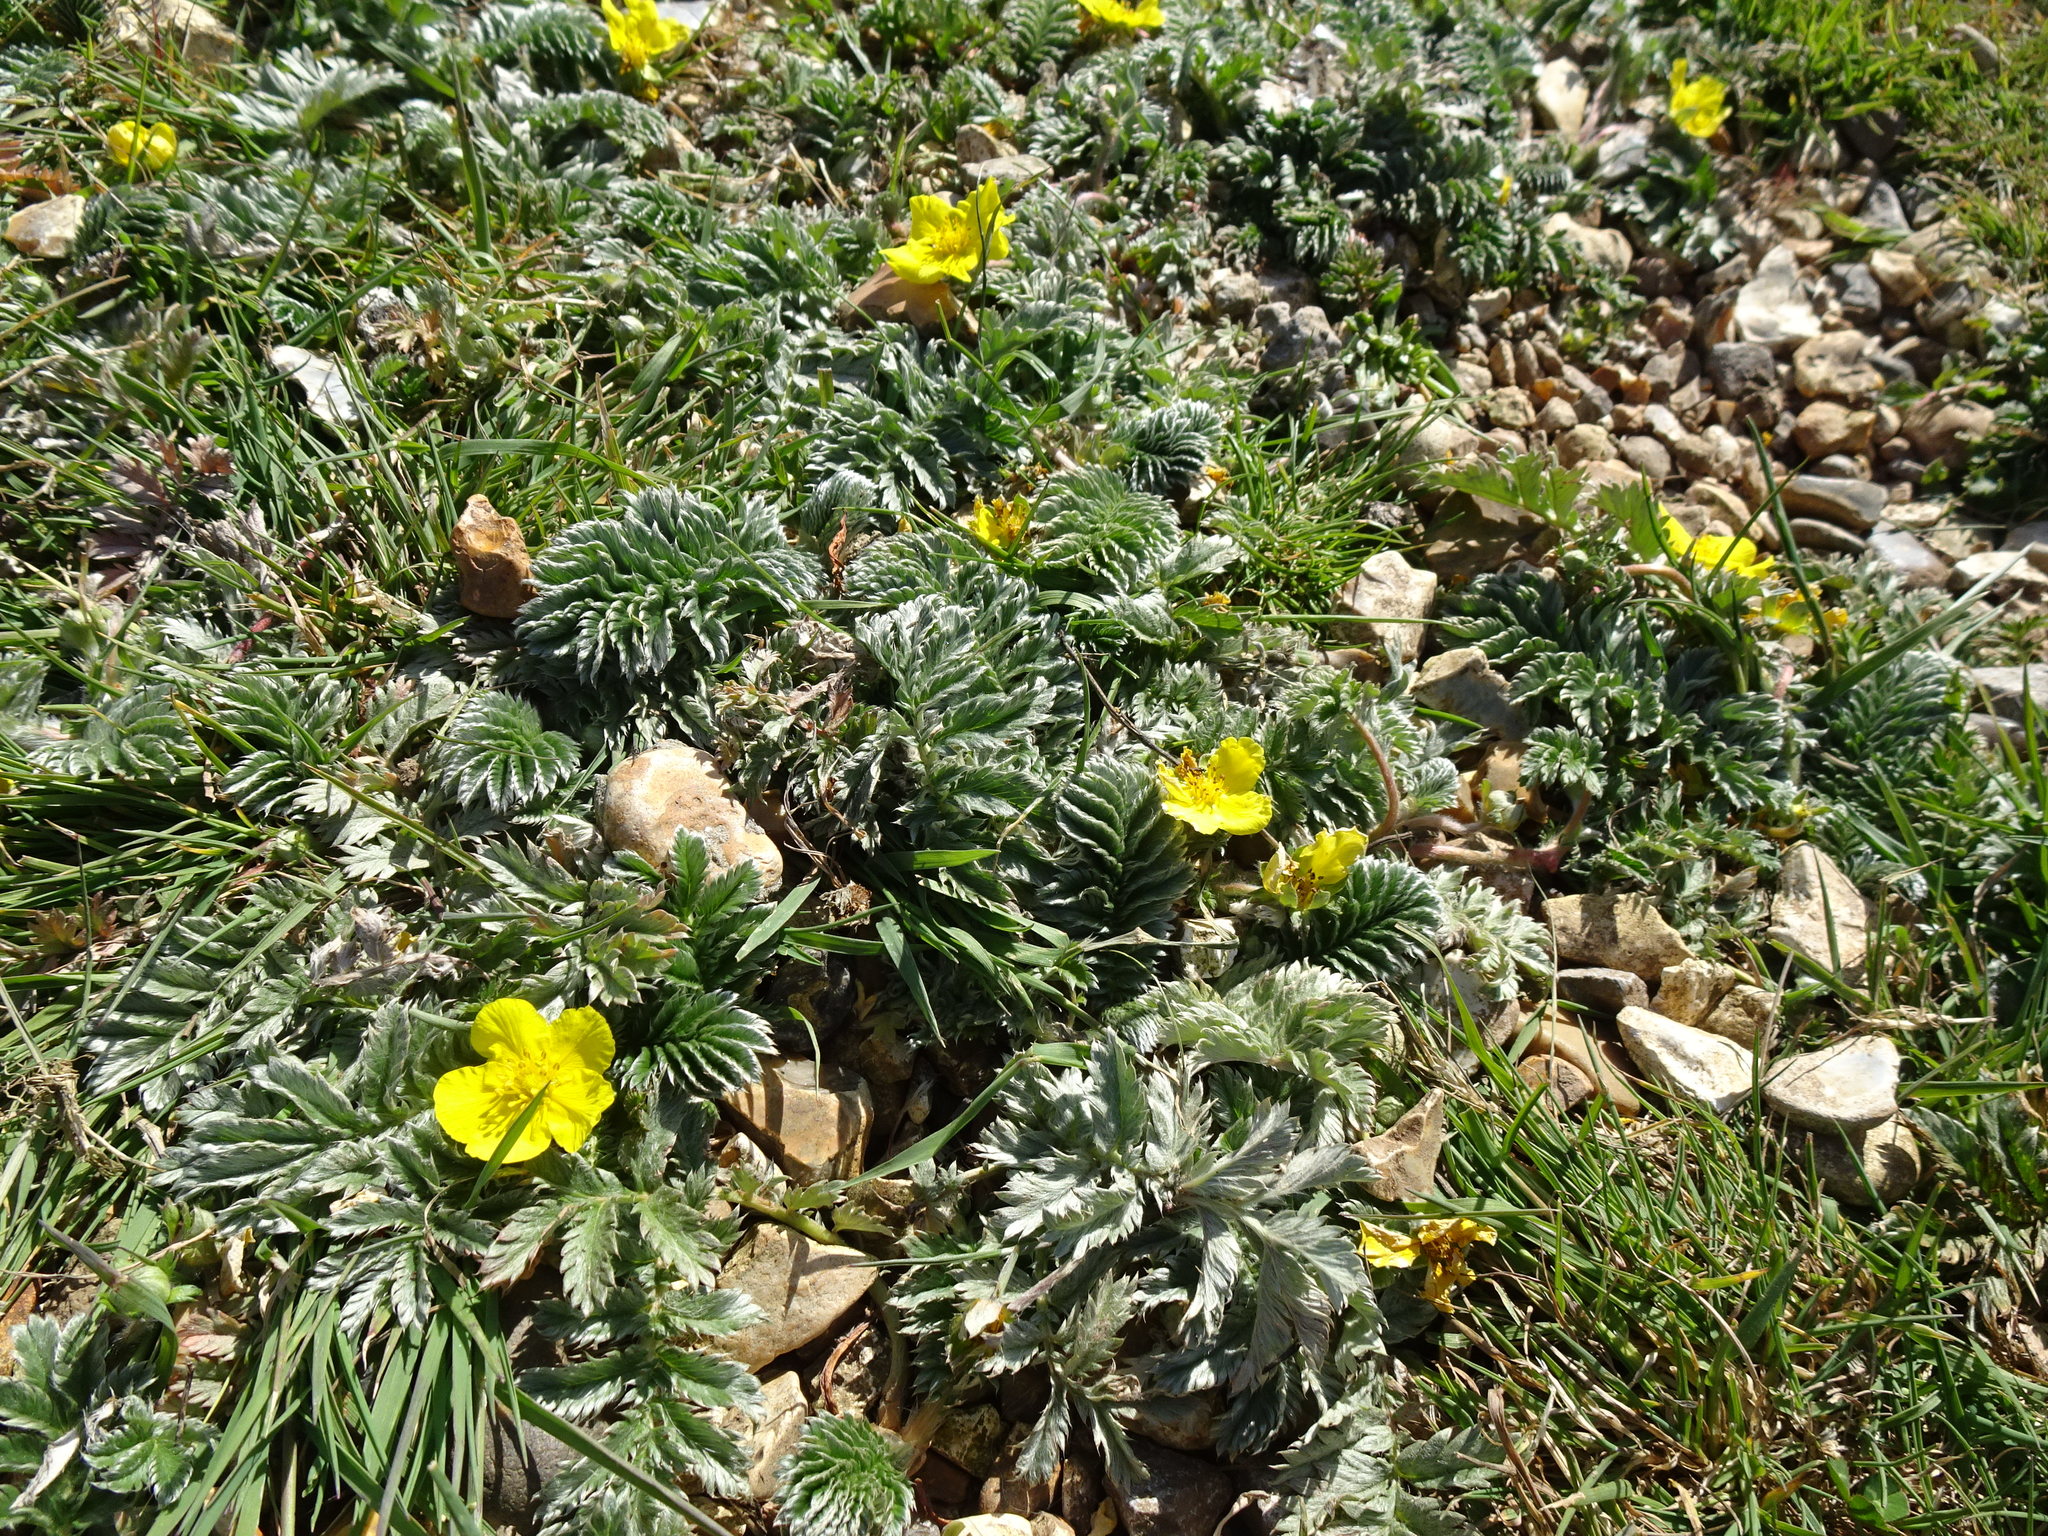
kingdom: Plantae
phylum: Tracheophyta
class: Magnoliopsida
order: Rosales
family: Rosaceae
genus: Argentina
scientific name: Argentina anserina
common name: Common silverweed
